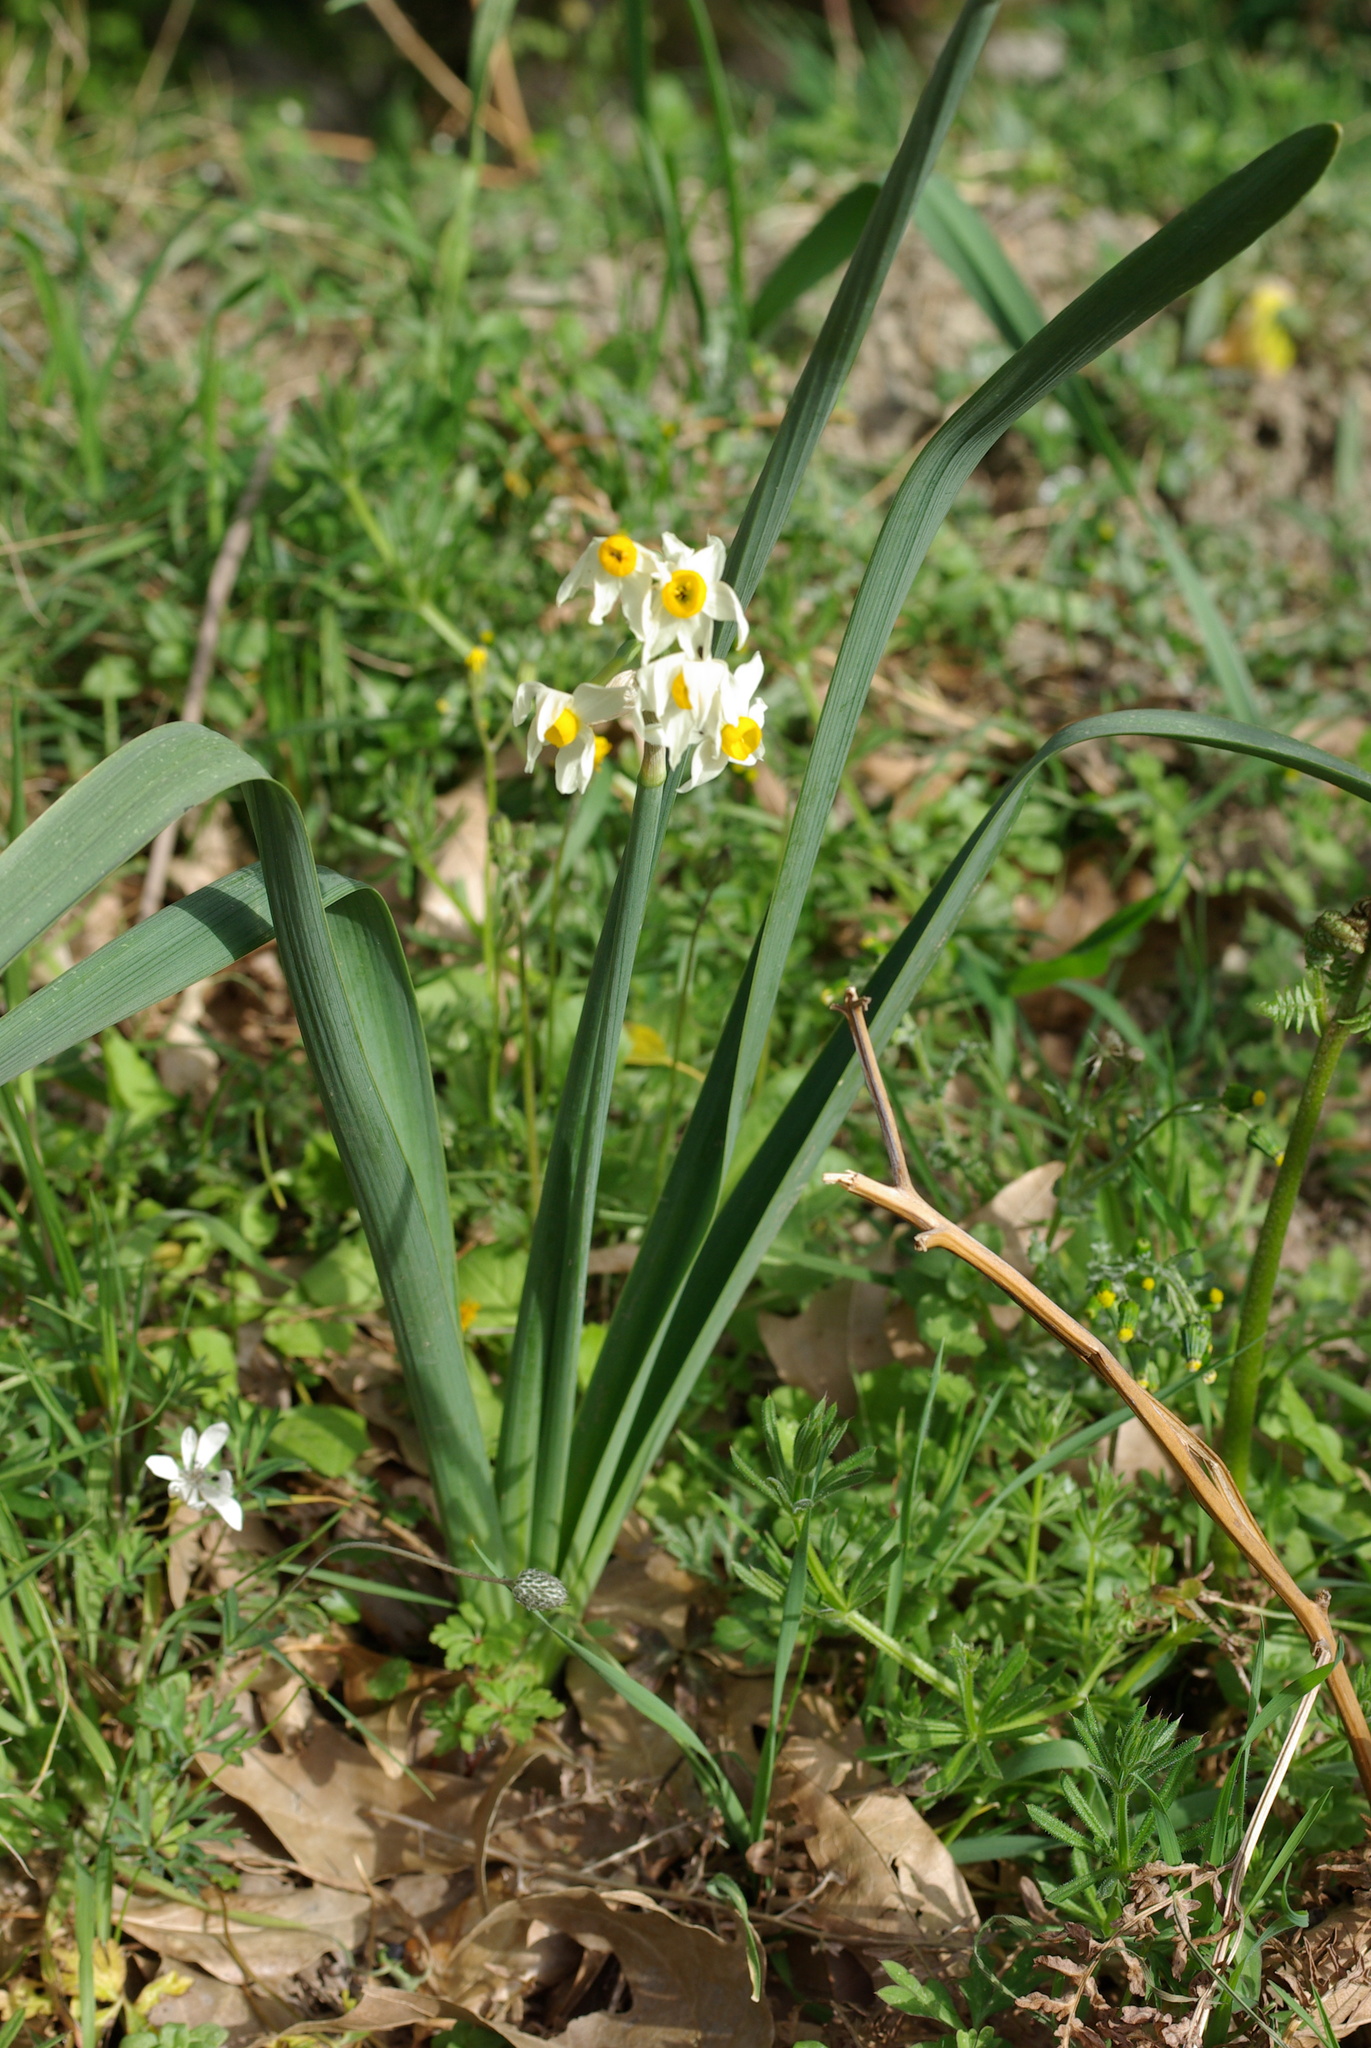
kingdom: Plantae
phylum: Tracheophyta
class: Liliopsida
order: Asparagales
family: Amaryllidaceae
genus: Narcissus
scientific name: Narcissus tazetta
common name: Bunch-flowered daffodil
